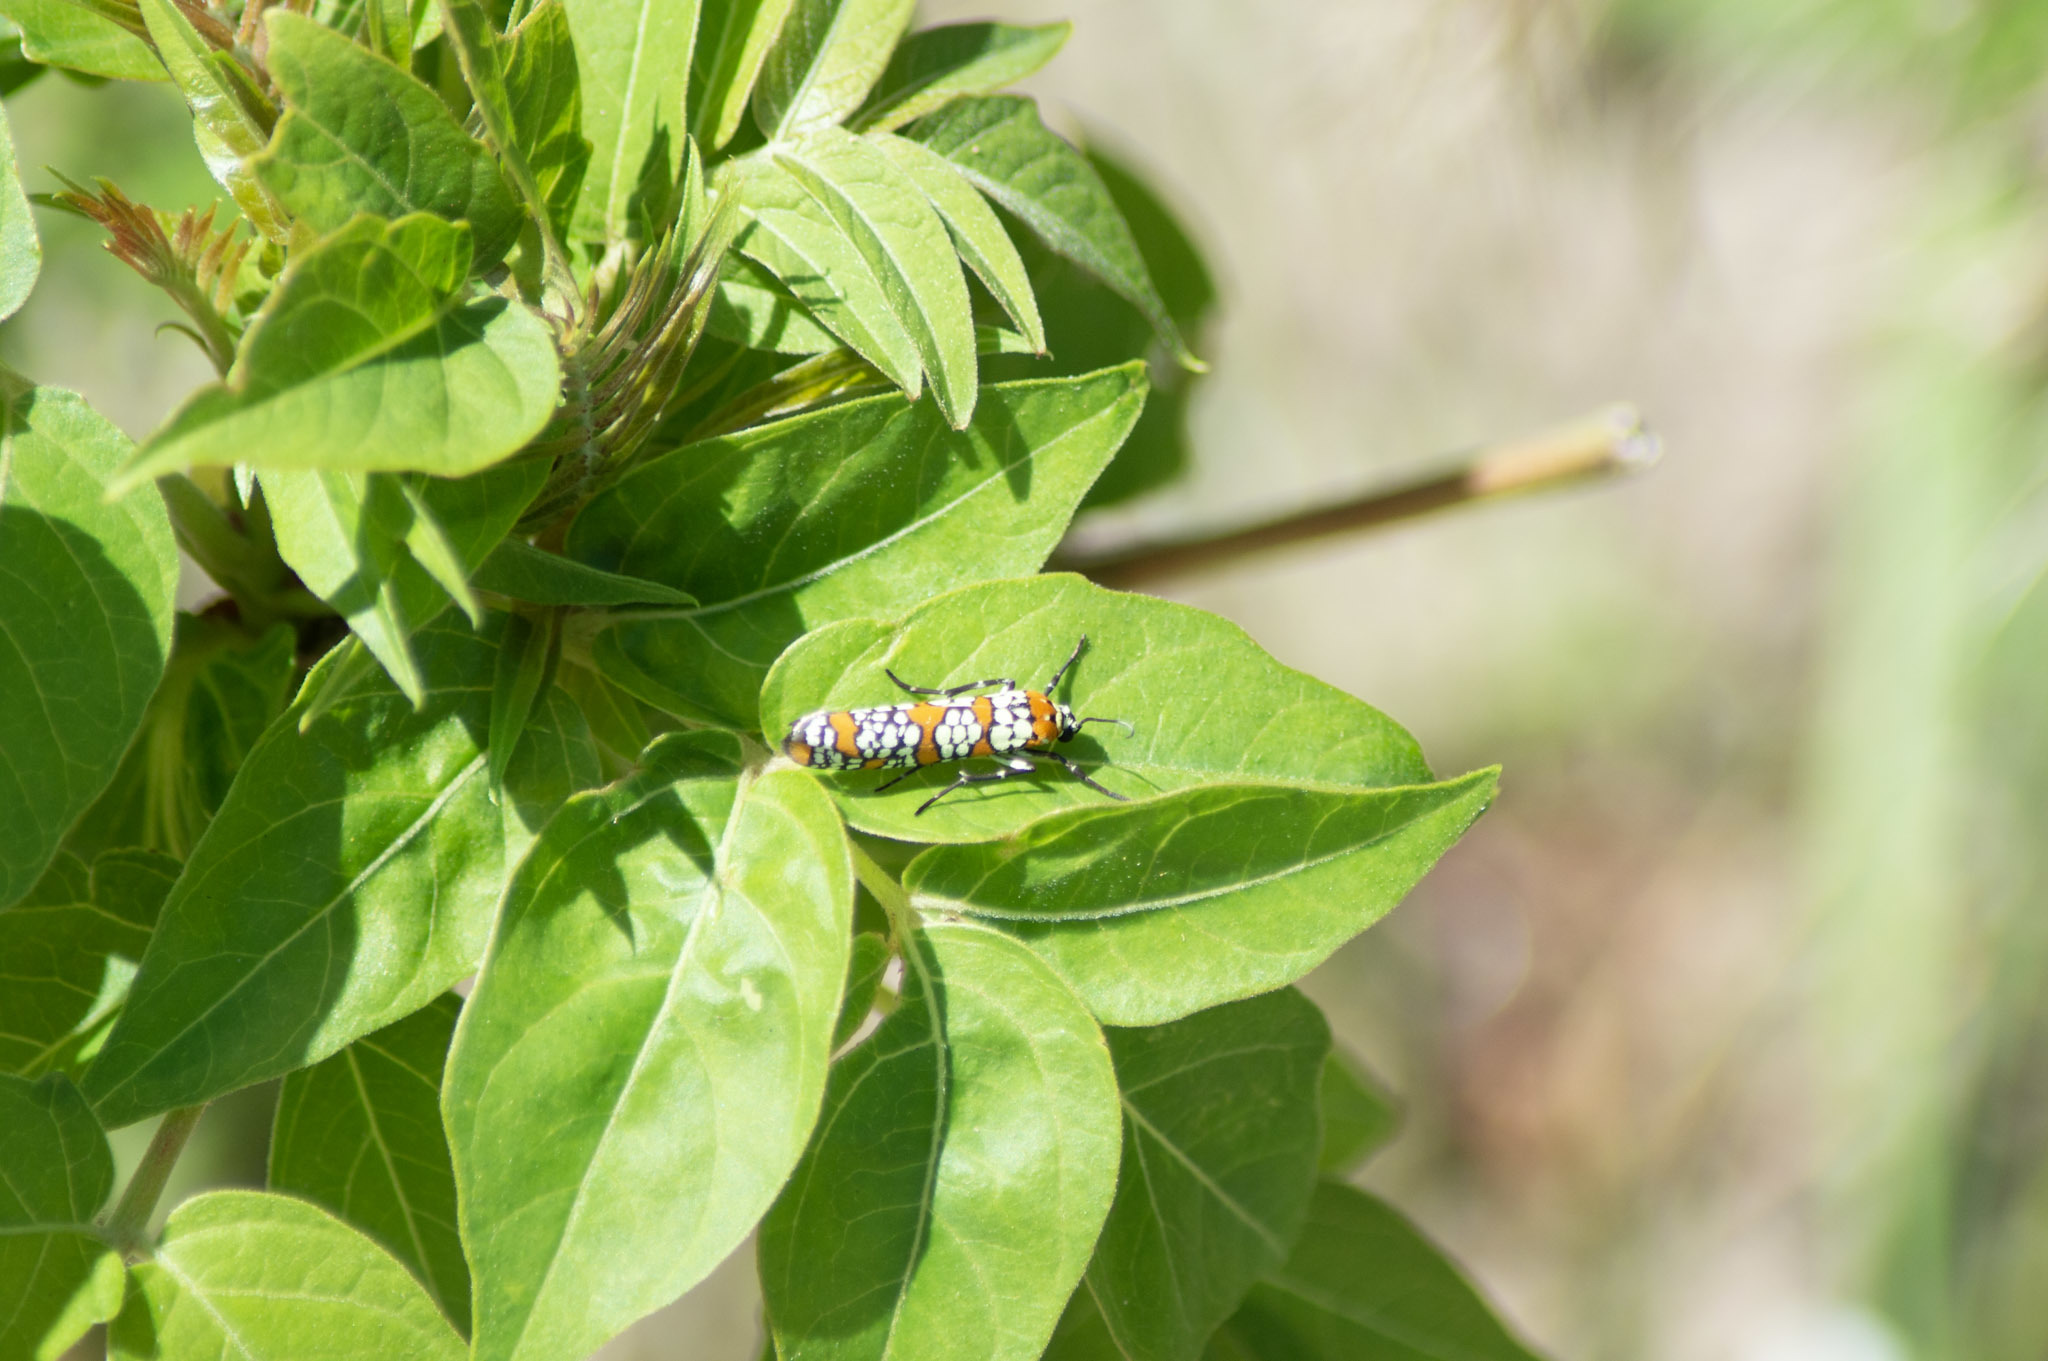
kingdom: Animalia
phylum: Arthropoda
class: Insecta
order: Lepidoptera
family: Attevidae
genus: Atteva
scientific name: Atteva punctella
